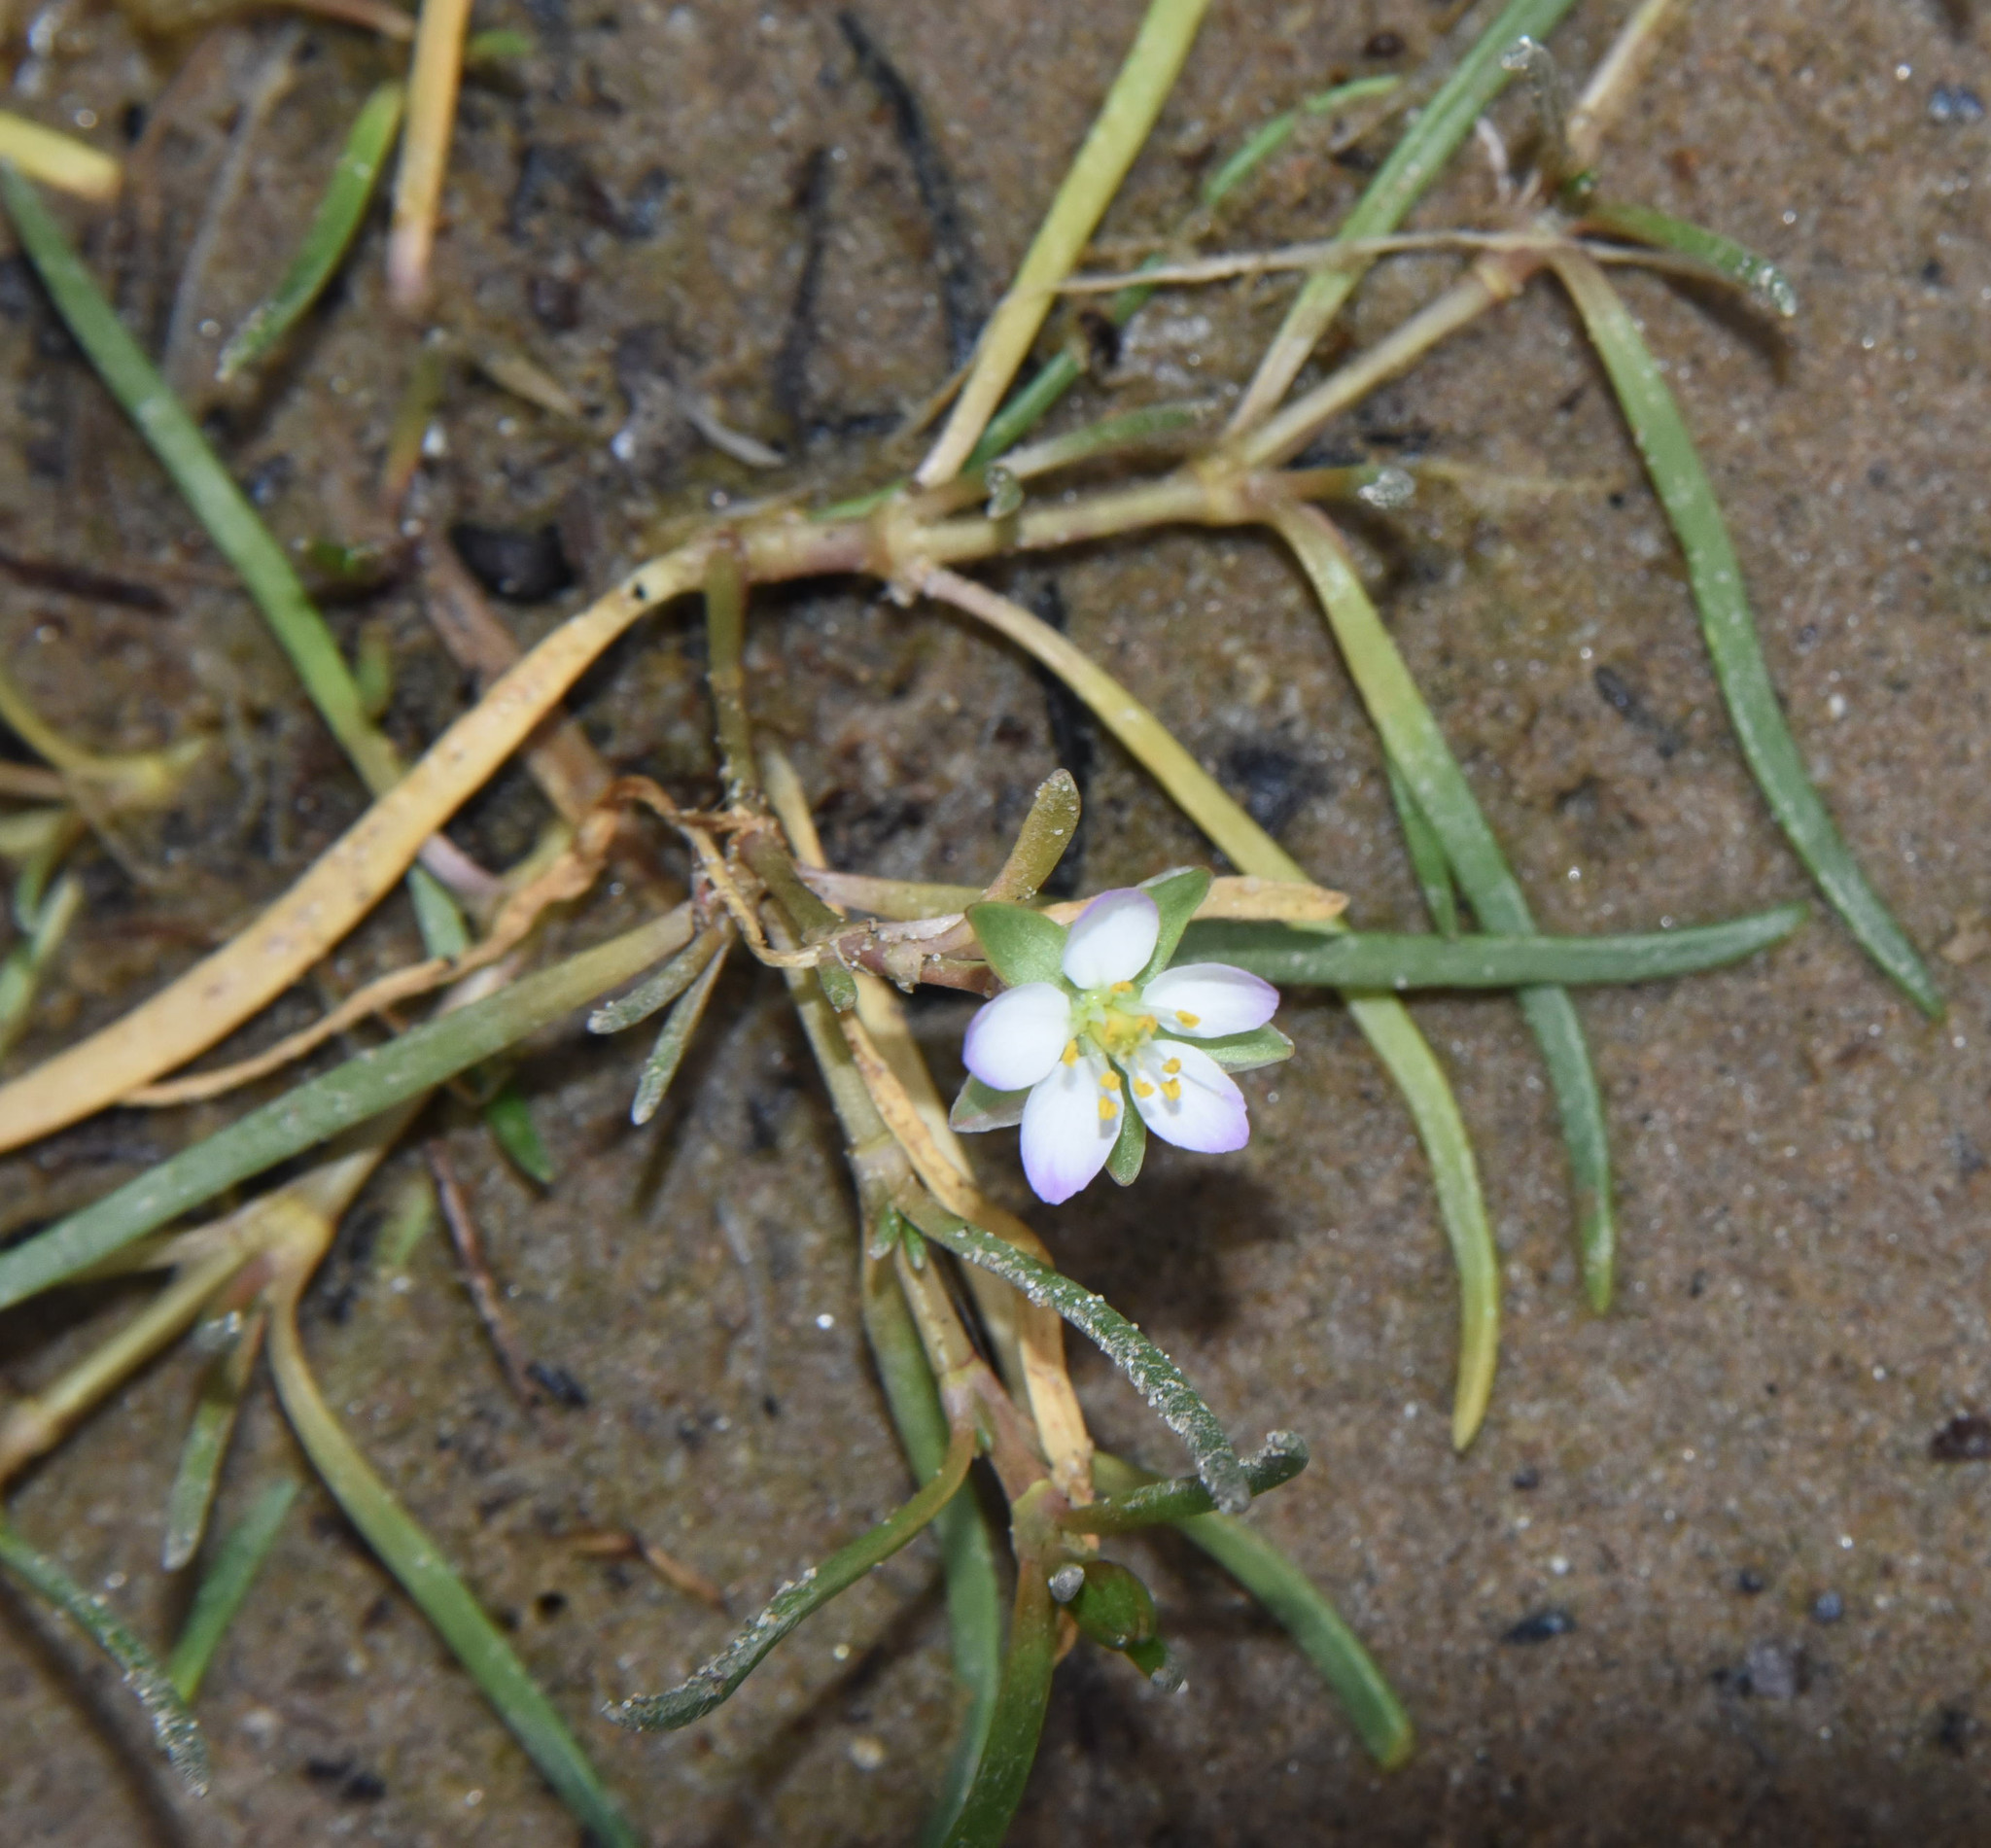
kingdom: Plantae
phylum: Tracheophyta
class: Magnoliopsida
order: Caryophyllales
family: Caryophyllaceae
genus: Spergularia
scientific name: Spergularia media
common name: Greater sea-spurrey
